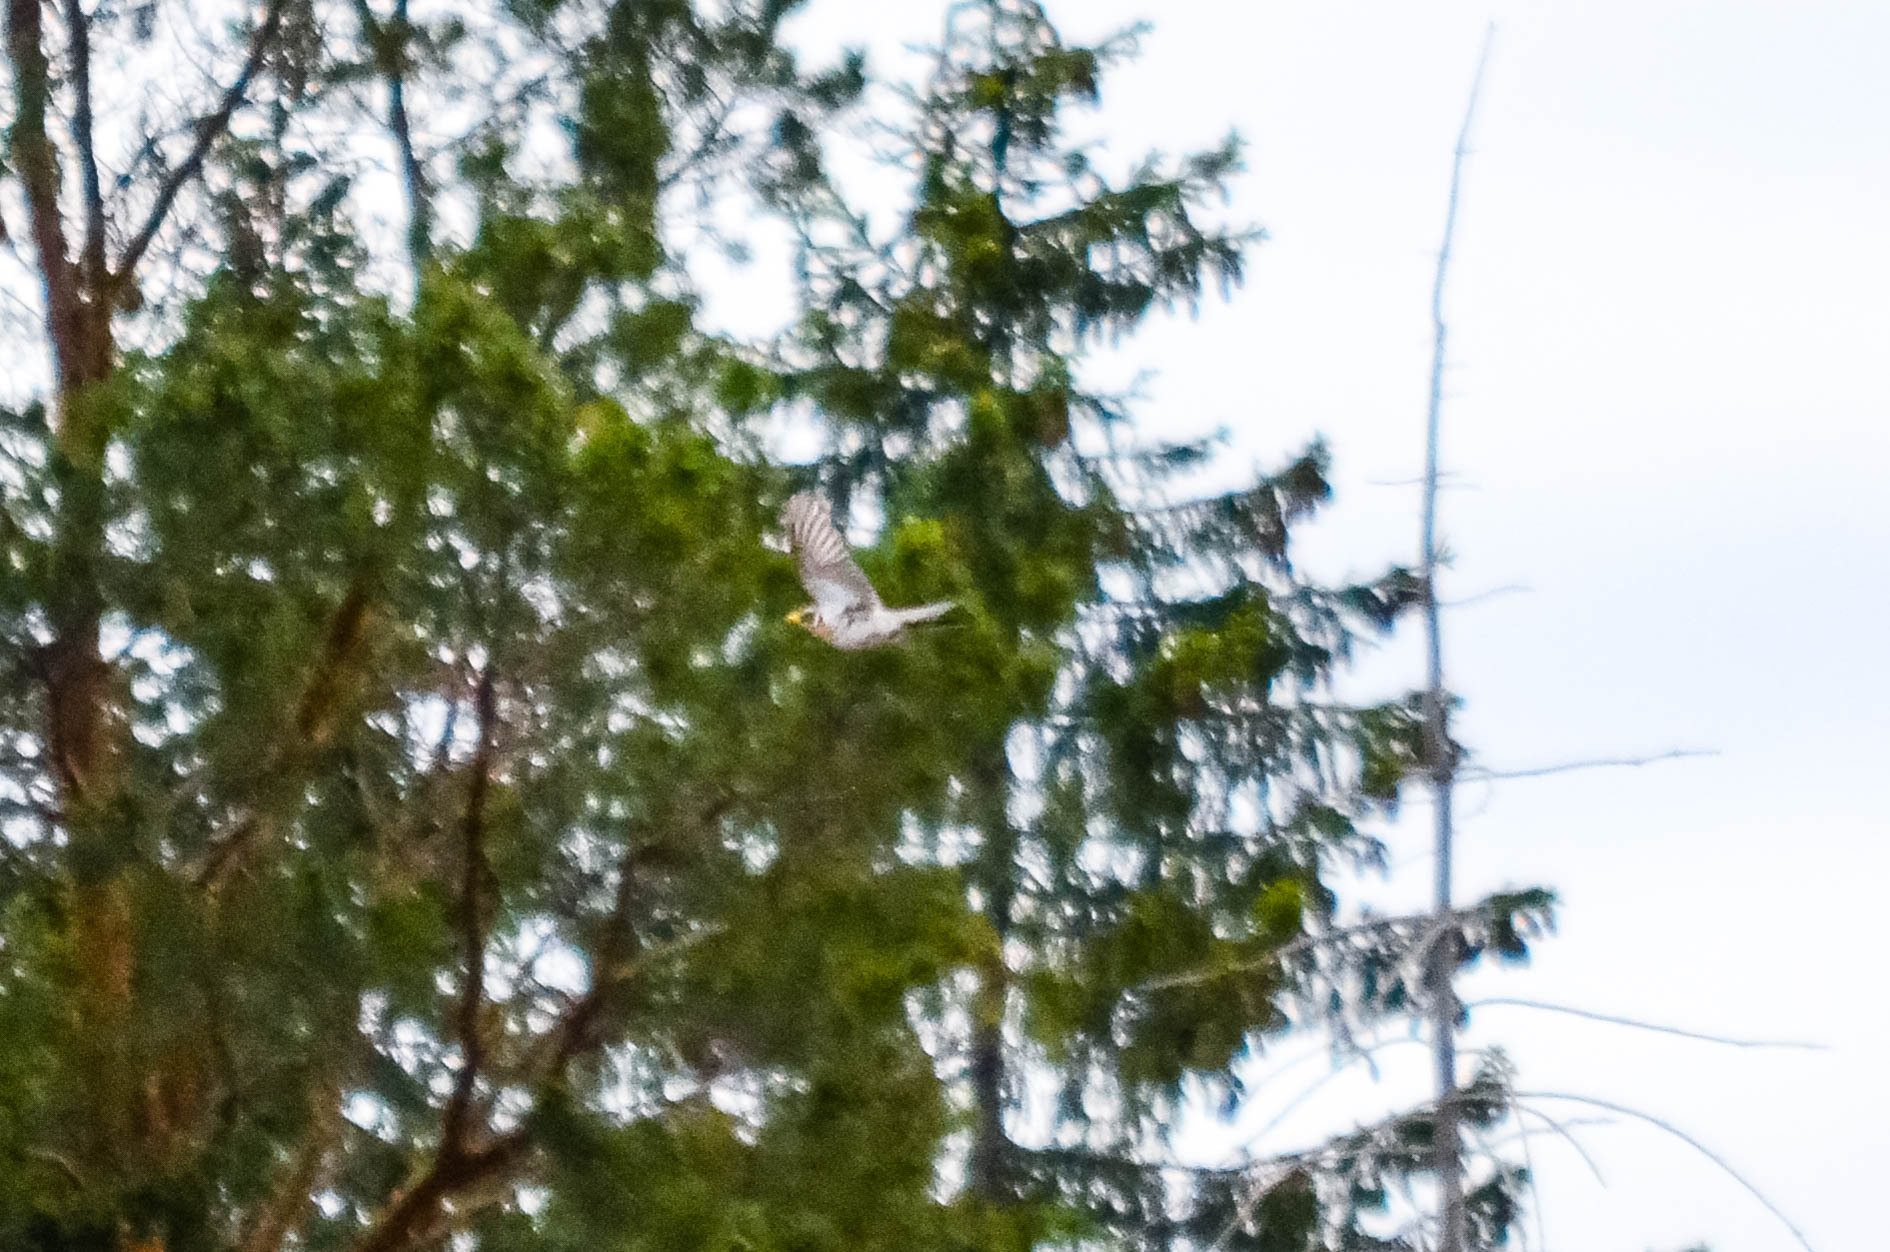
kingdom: Animalia
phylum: Chordata
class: Aves
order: Passeriformes
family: Turdidae
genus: Turdus
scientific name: Turdus pilaris
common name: Fieldfare
